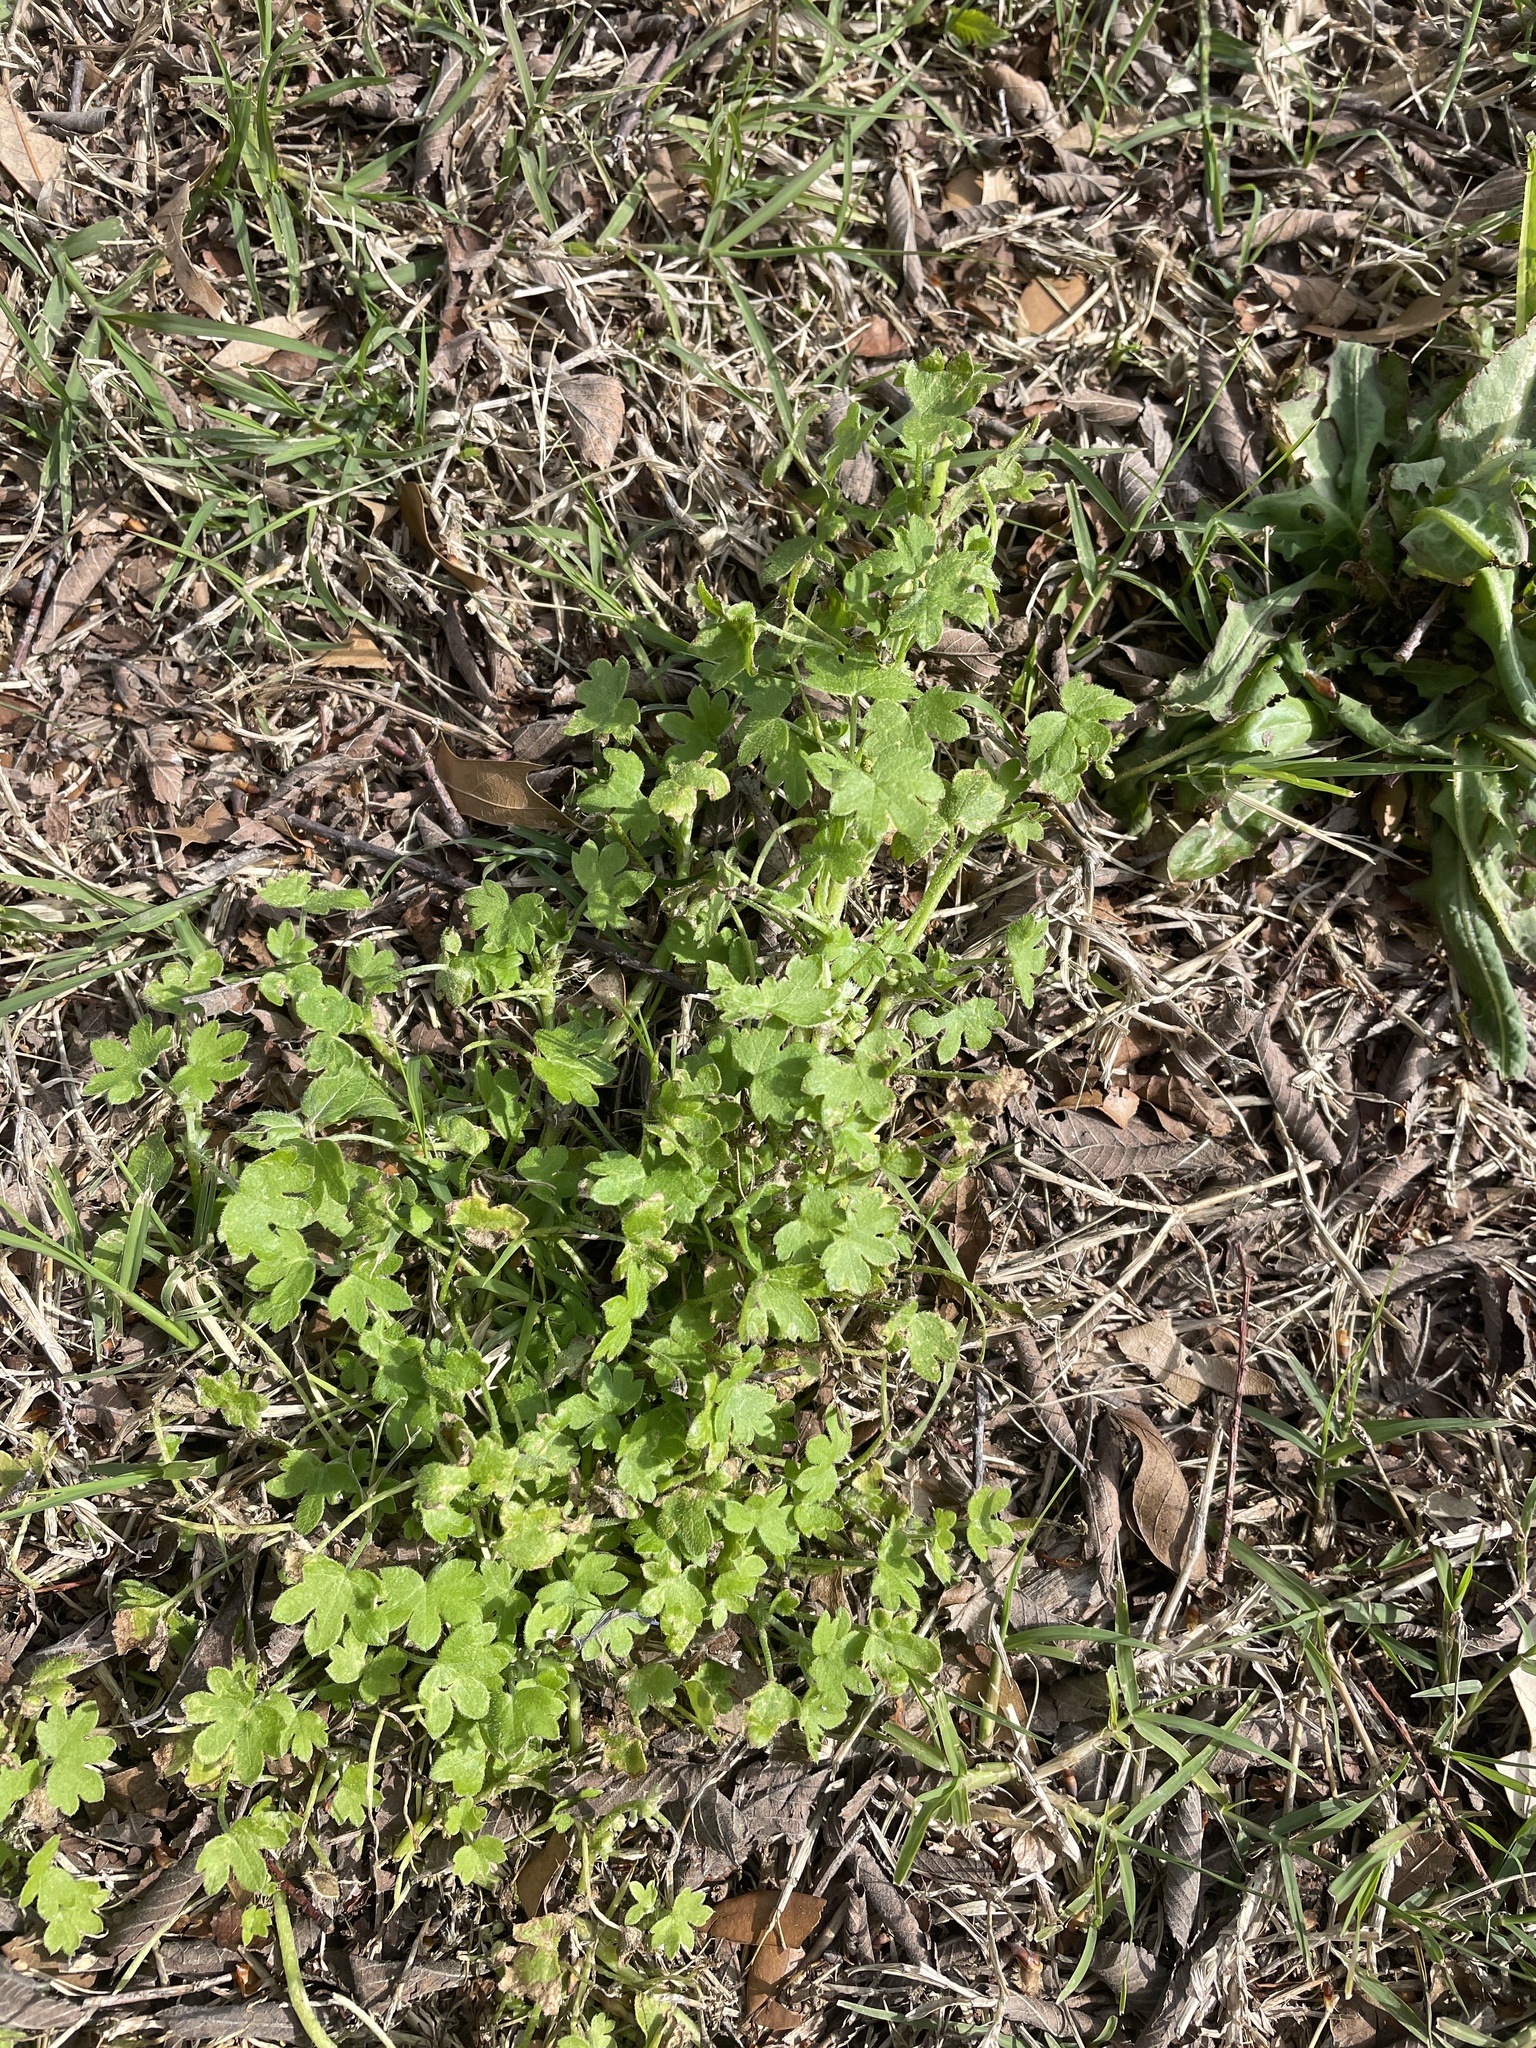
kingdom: Plantae
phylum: Tracheophyta
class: Magnoliopsida
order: Apiales
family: Apiaceae
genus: Bowlesia
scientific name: Bowlesia incana
